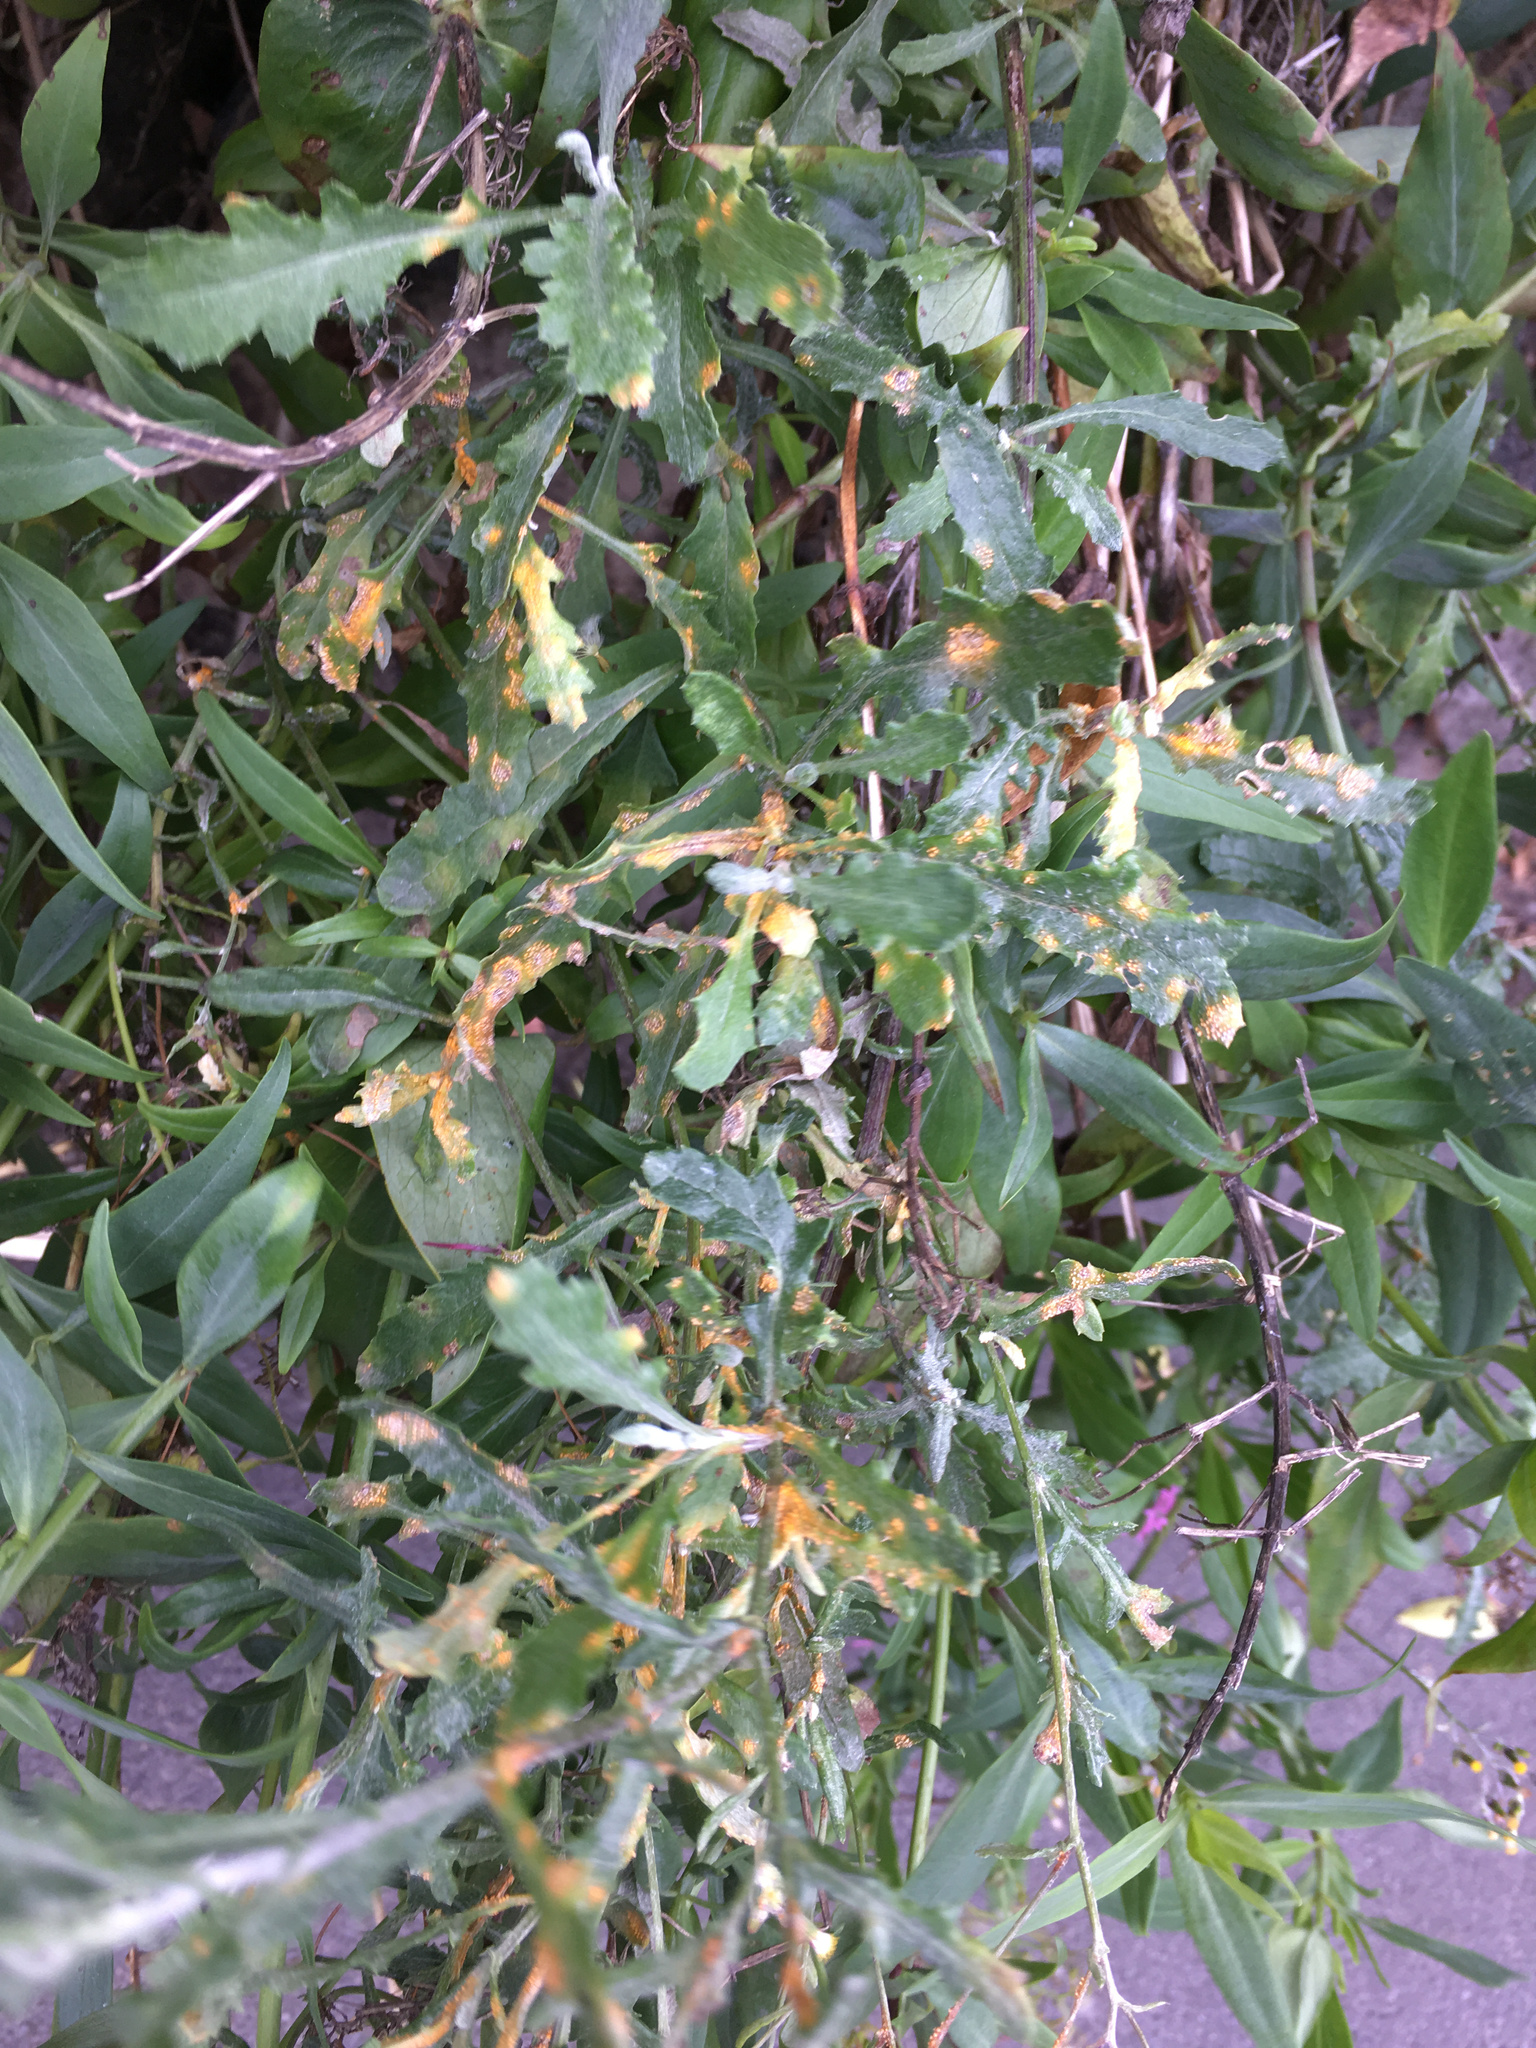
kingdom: Fungi
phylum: Basidiomycota
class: Pucciniomycetes
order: Pucciniales
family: Pucciniaceae
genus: Puccinia
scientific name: Puccinia lagenophorae
